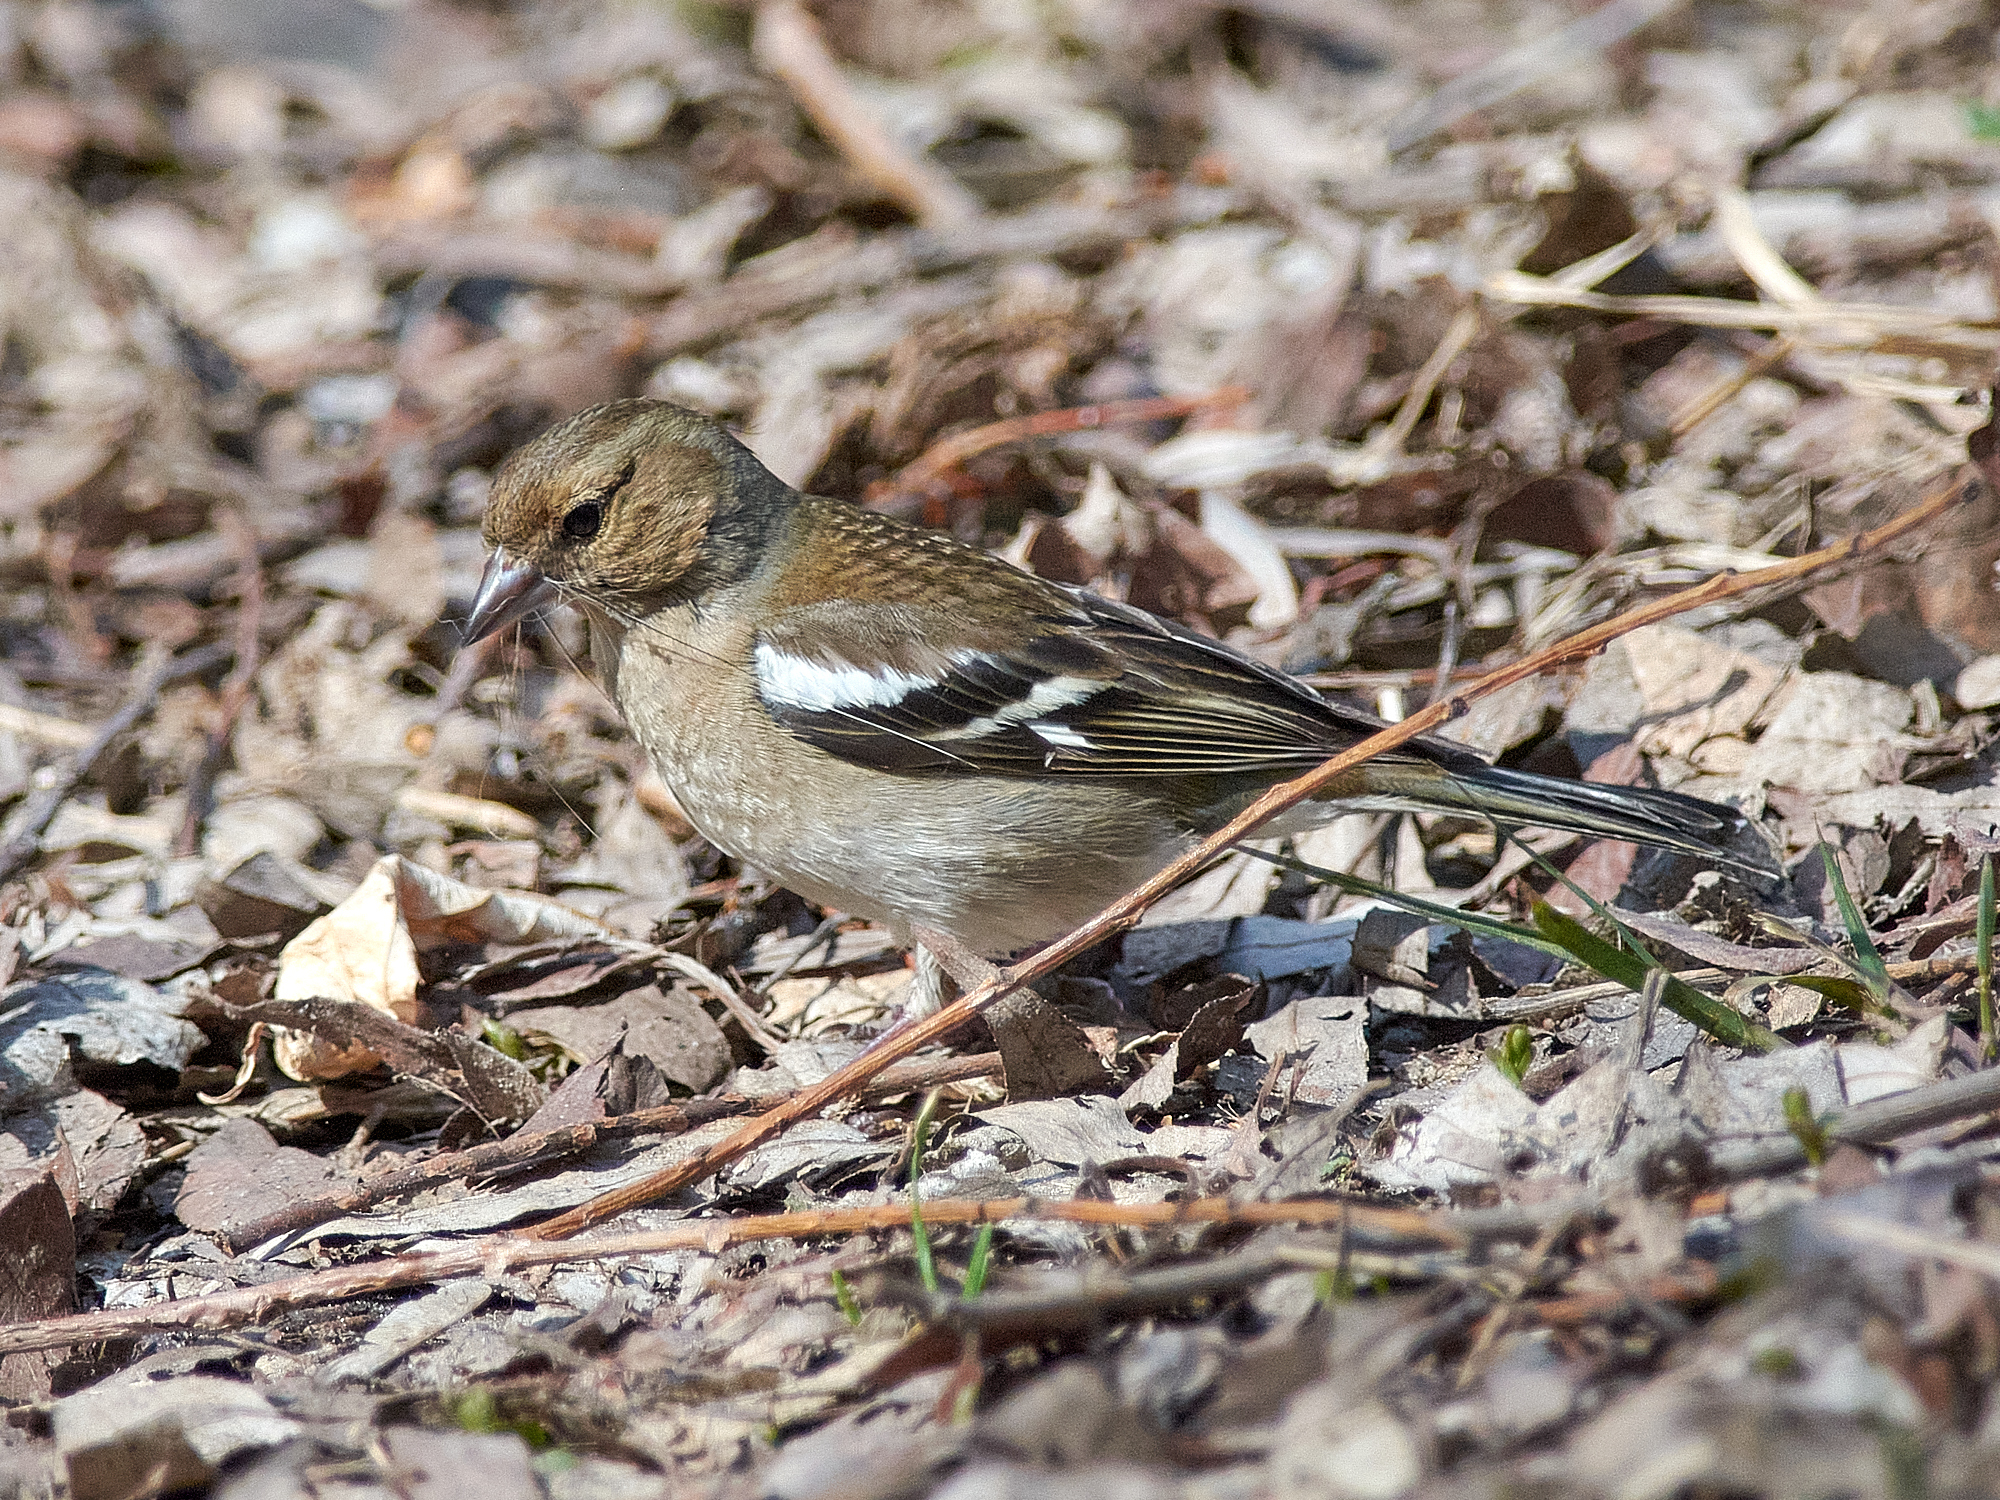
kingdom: Animalia
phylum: Chordata
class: Aves
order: Passeriformes
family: Fringillidae
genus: Fringilla
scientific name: Fringilla coelebs
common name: Common chaffinch
